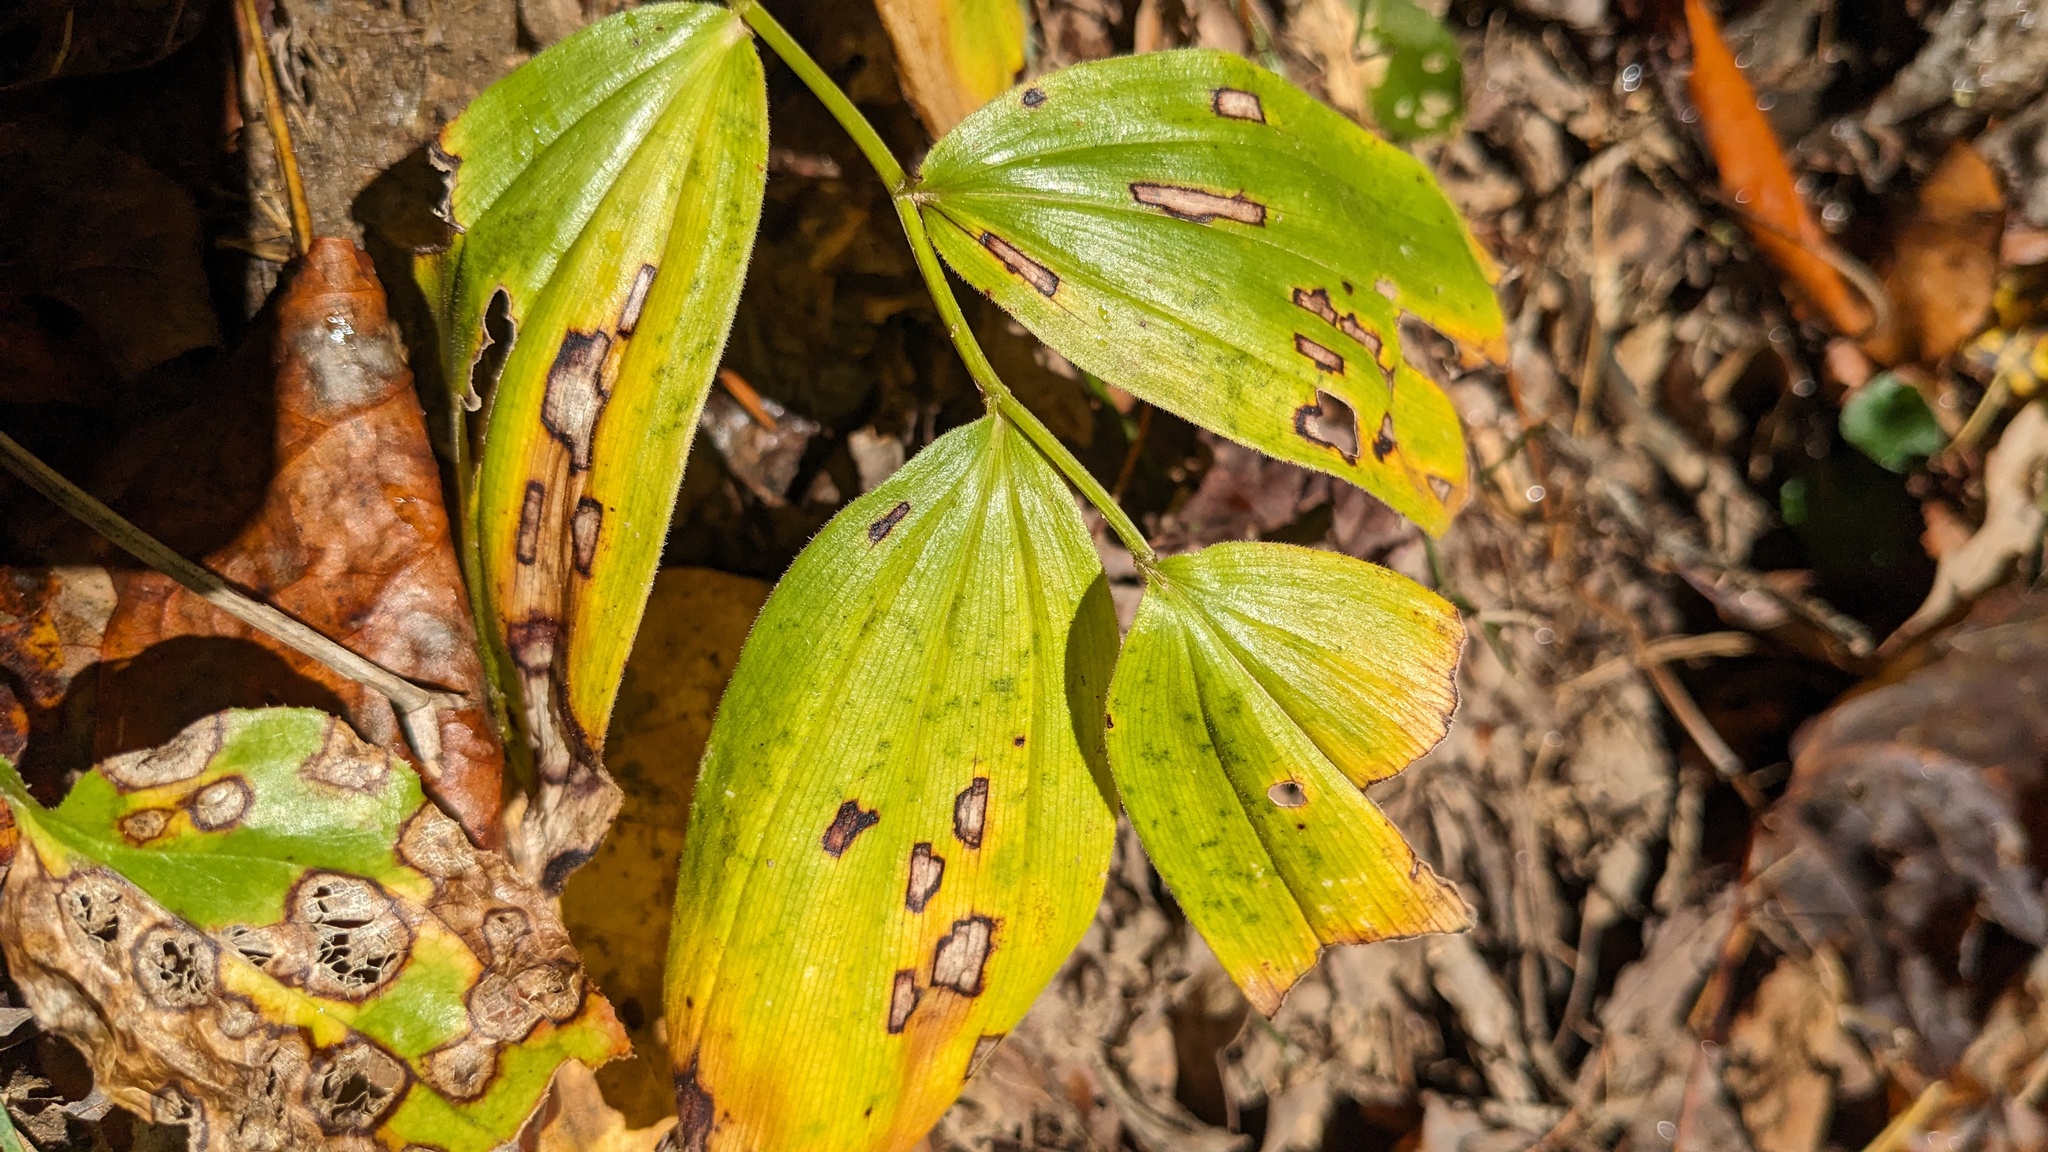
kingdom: Plantae
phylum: Tracheophyta
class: Liliopsida
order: Asparagales
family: Asparagaceae
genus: Maianthemum
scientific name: Maianthemum racemosum
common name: False spikenard
